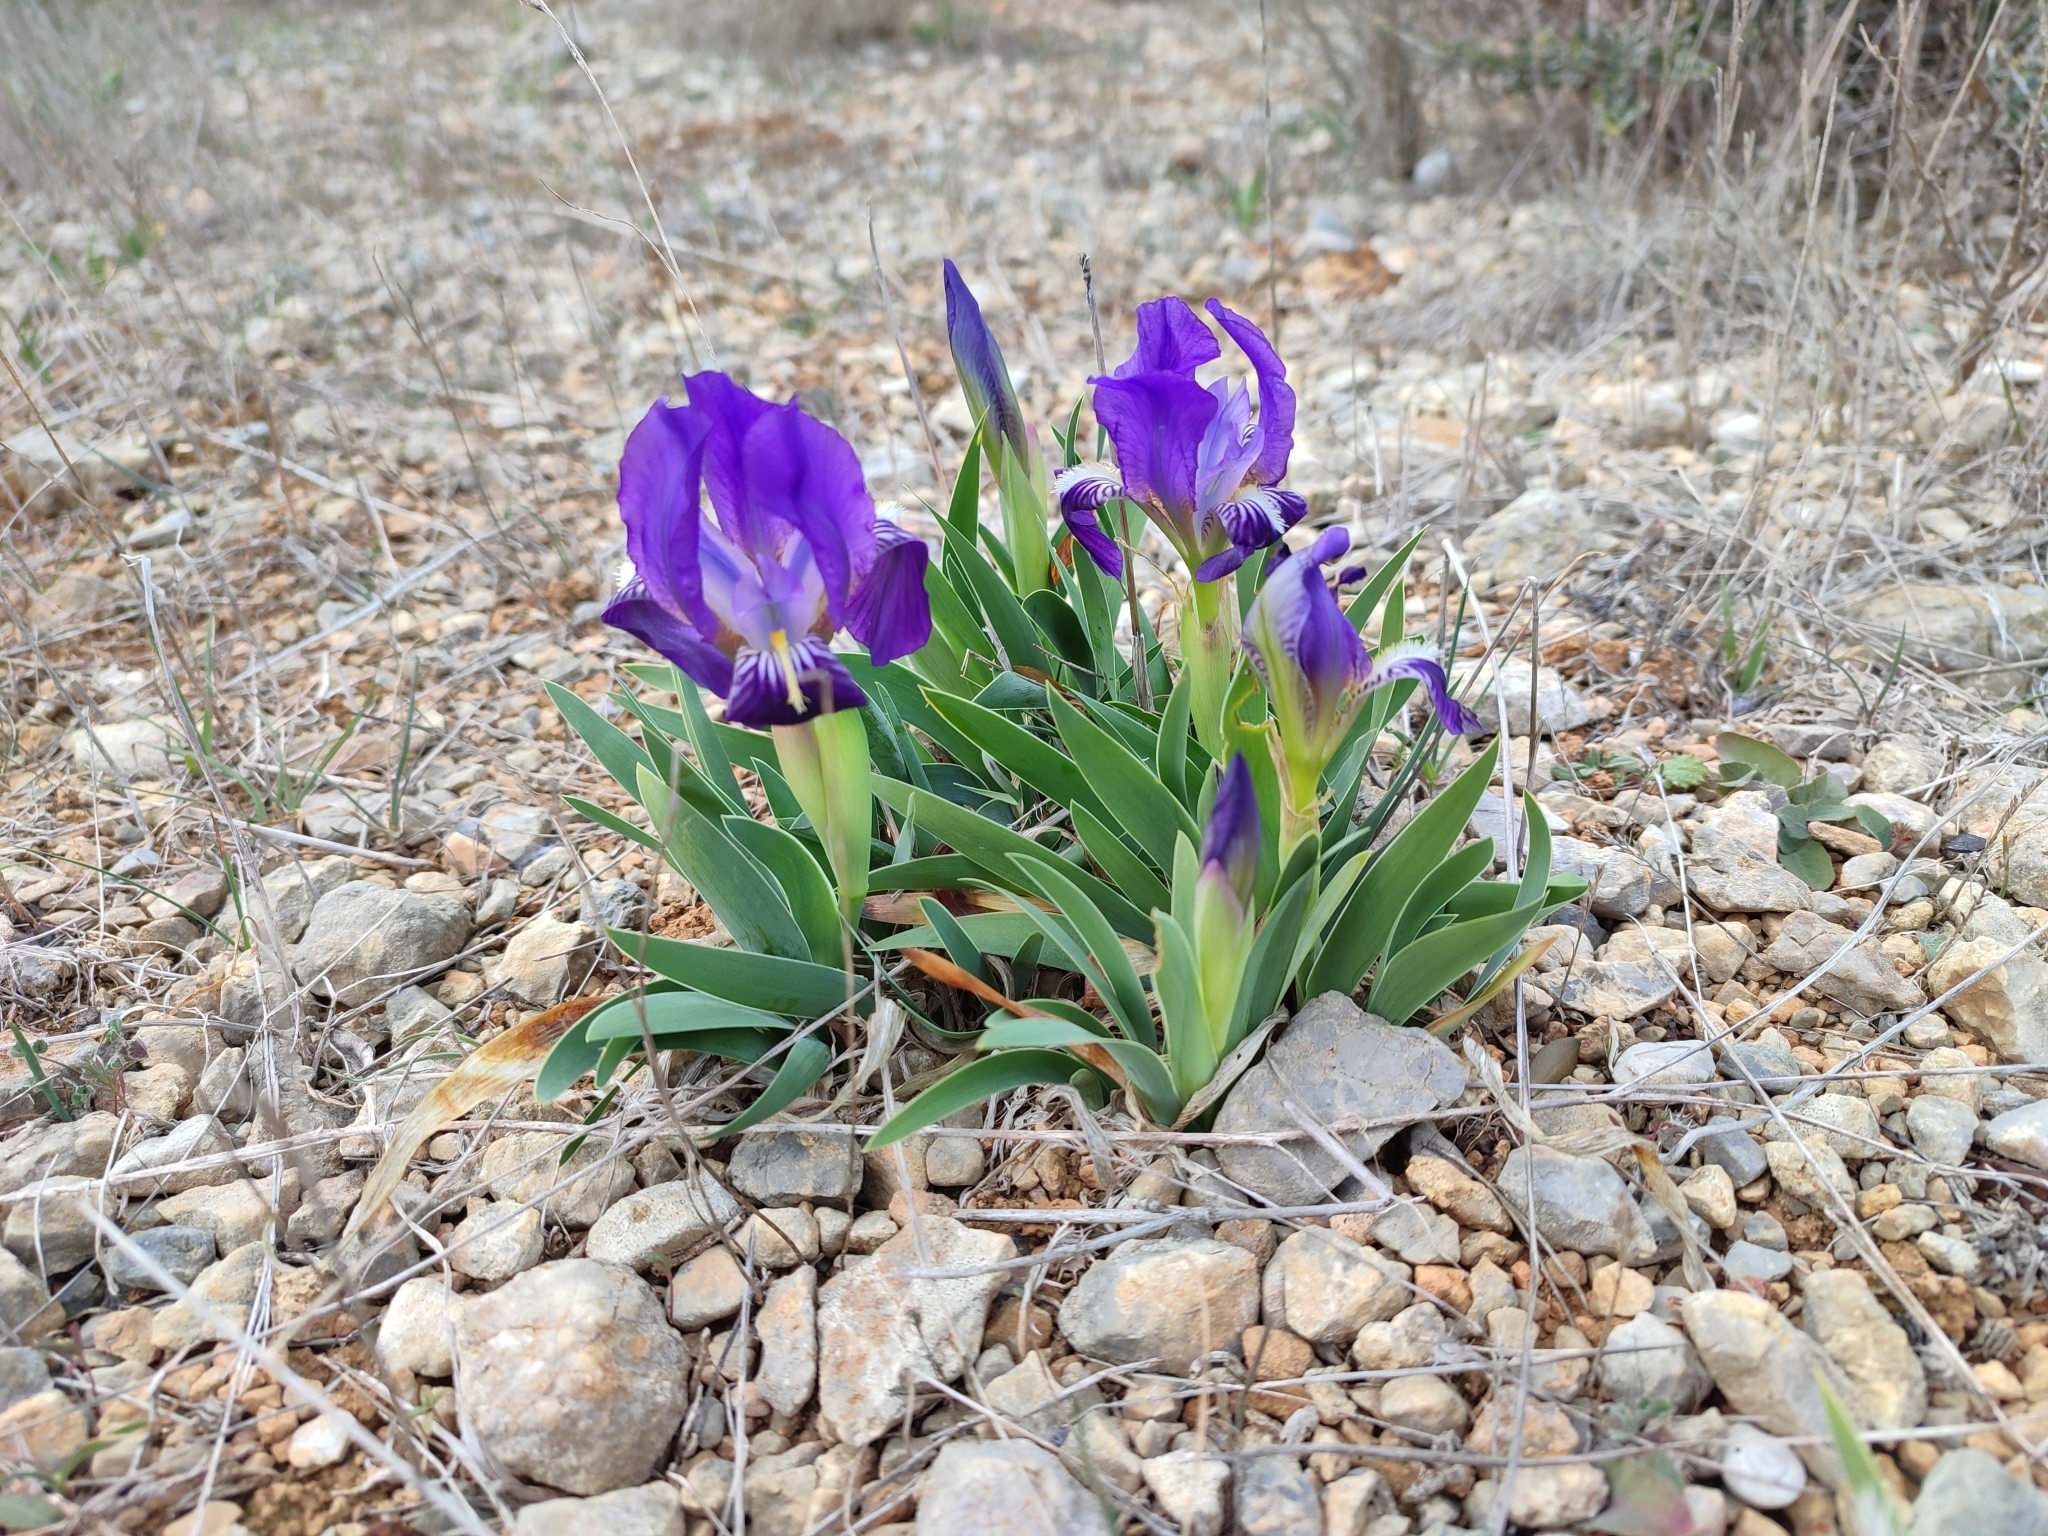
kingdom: Plantae
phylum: Tracheophyta
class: Liliopsida
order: Asparagales
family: Iridaceae
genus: Iris
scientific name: Iris lutescens
